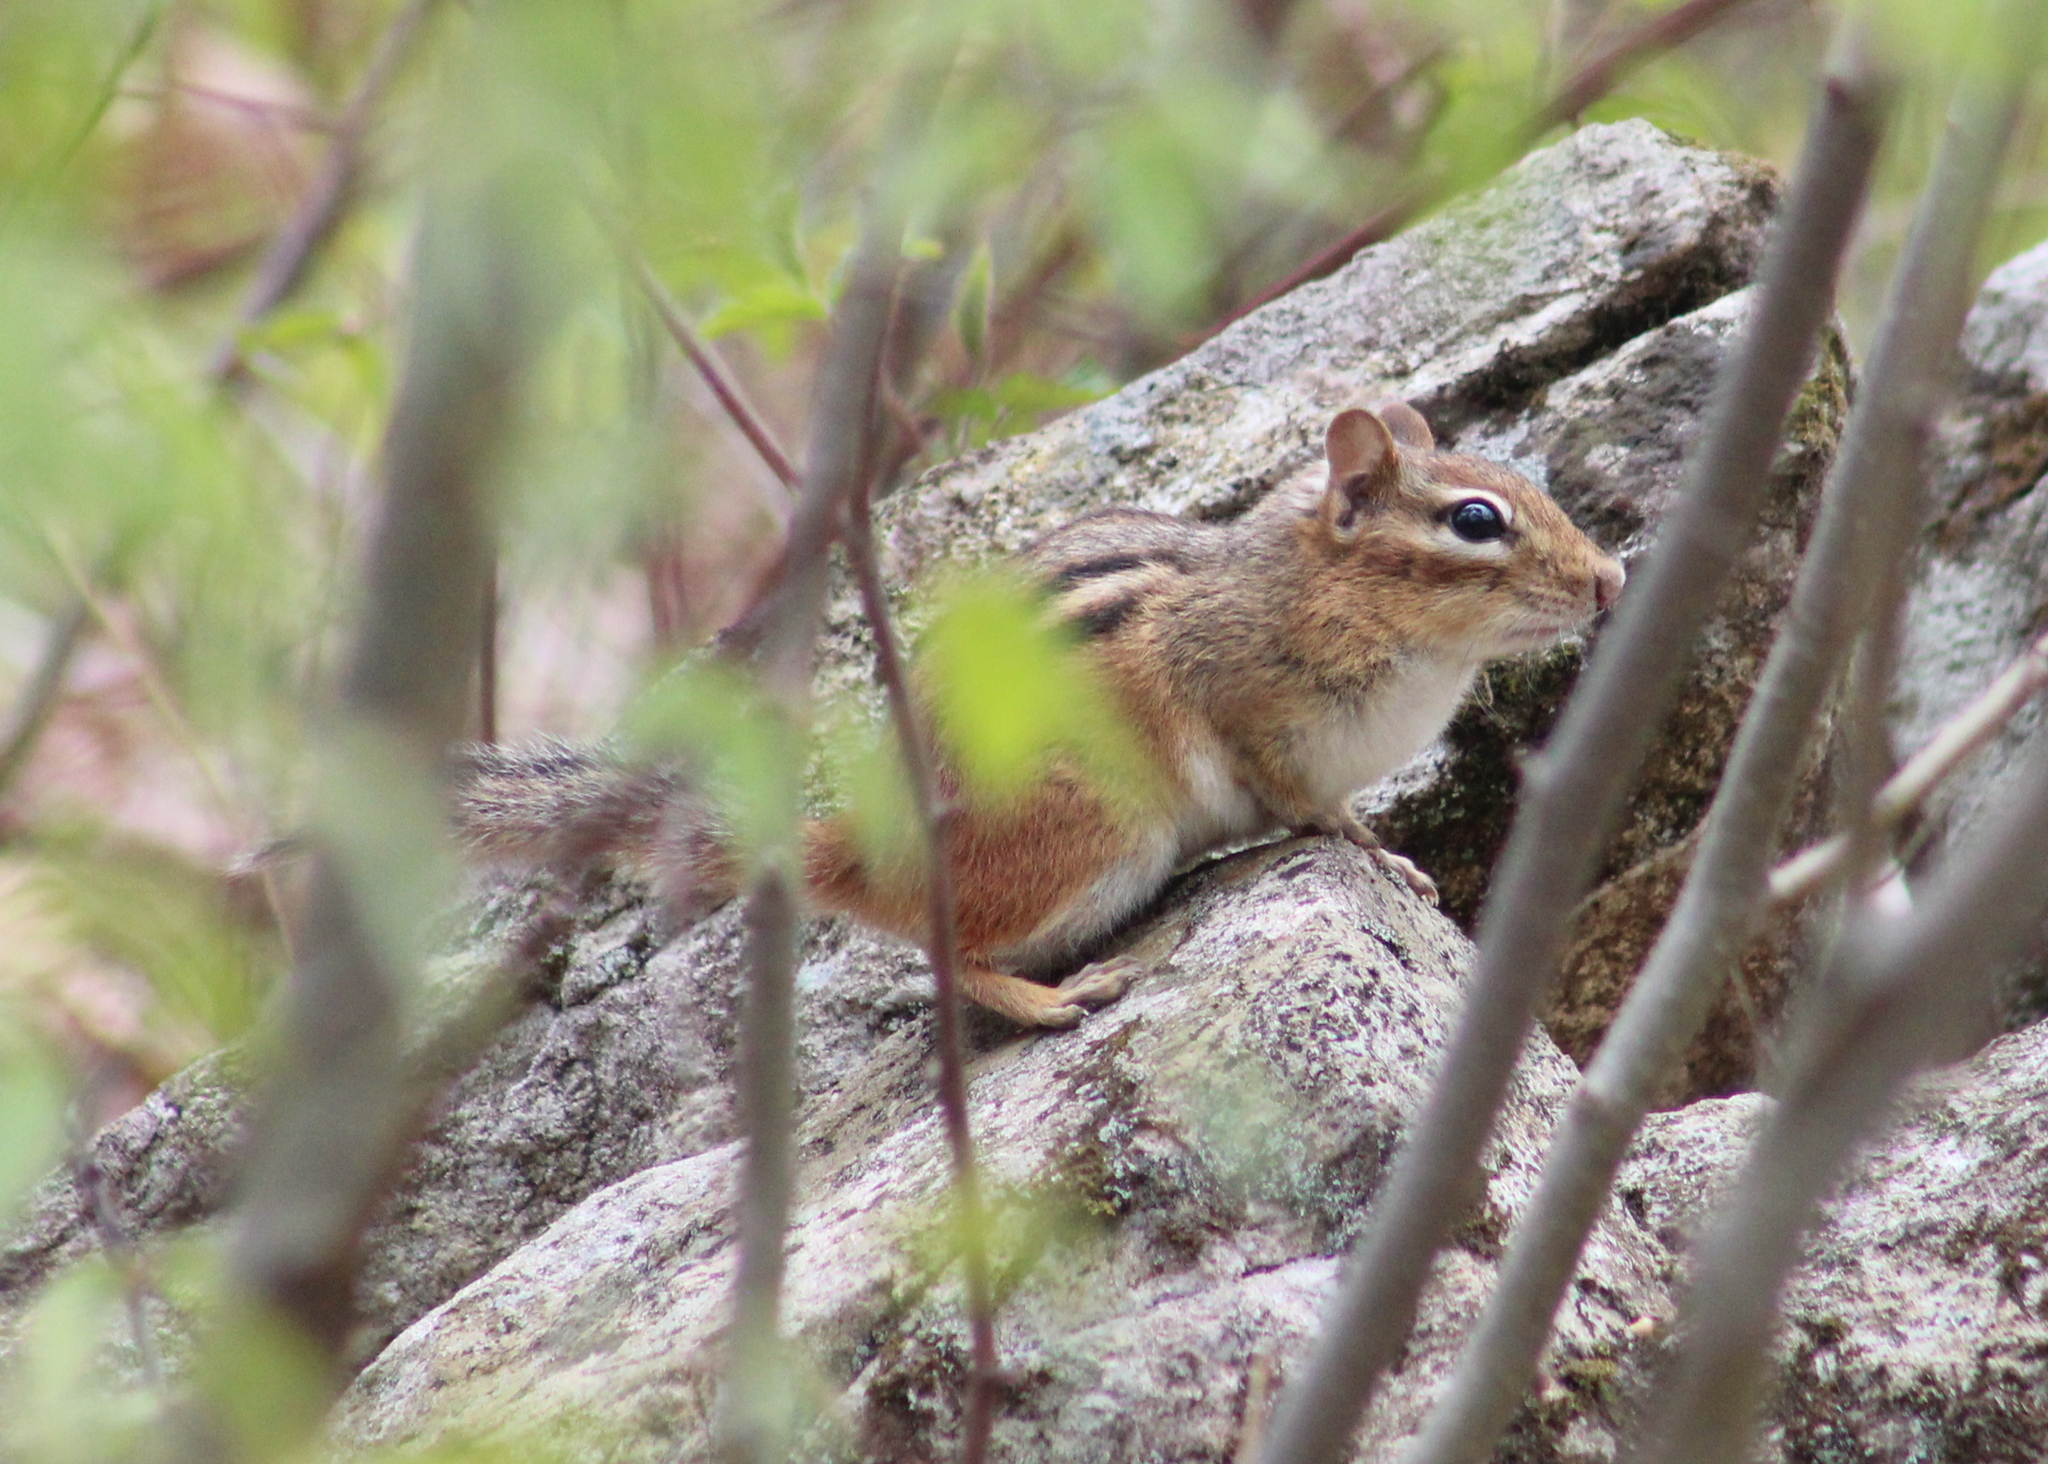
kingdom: Animalia
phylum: Chordata
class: Mammalia
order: Rodentia
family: Sciuridae
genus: Tamias
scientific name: Tamias striatus
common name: Eastern chipmunk
